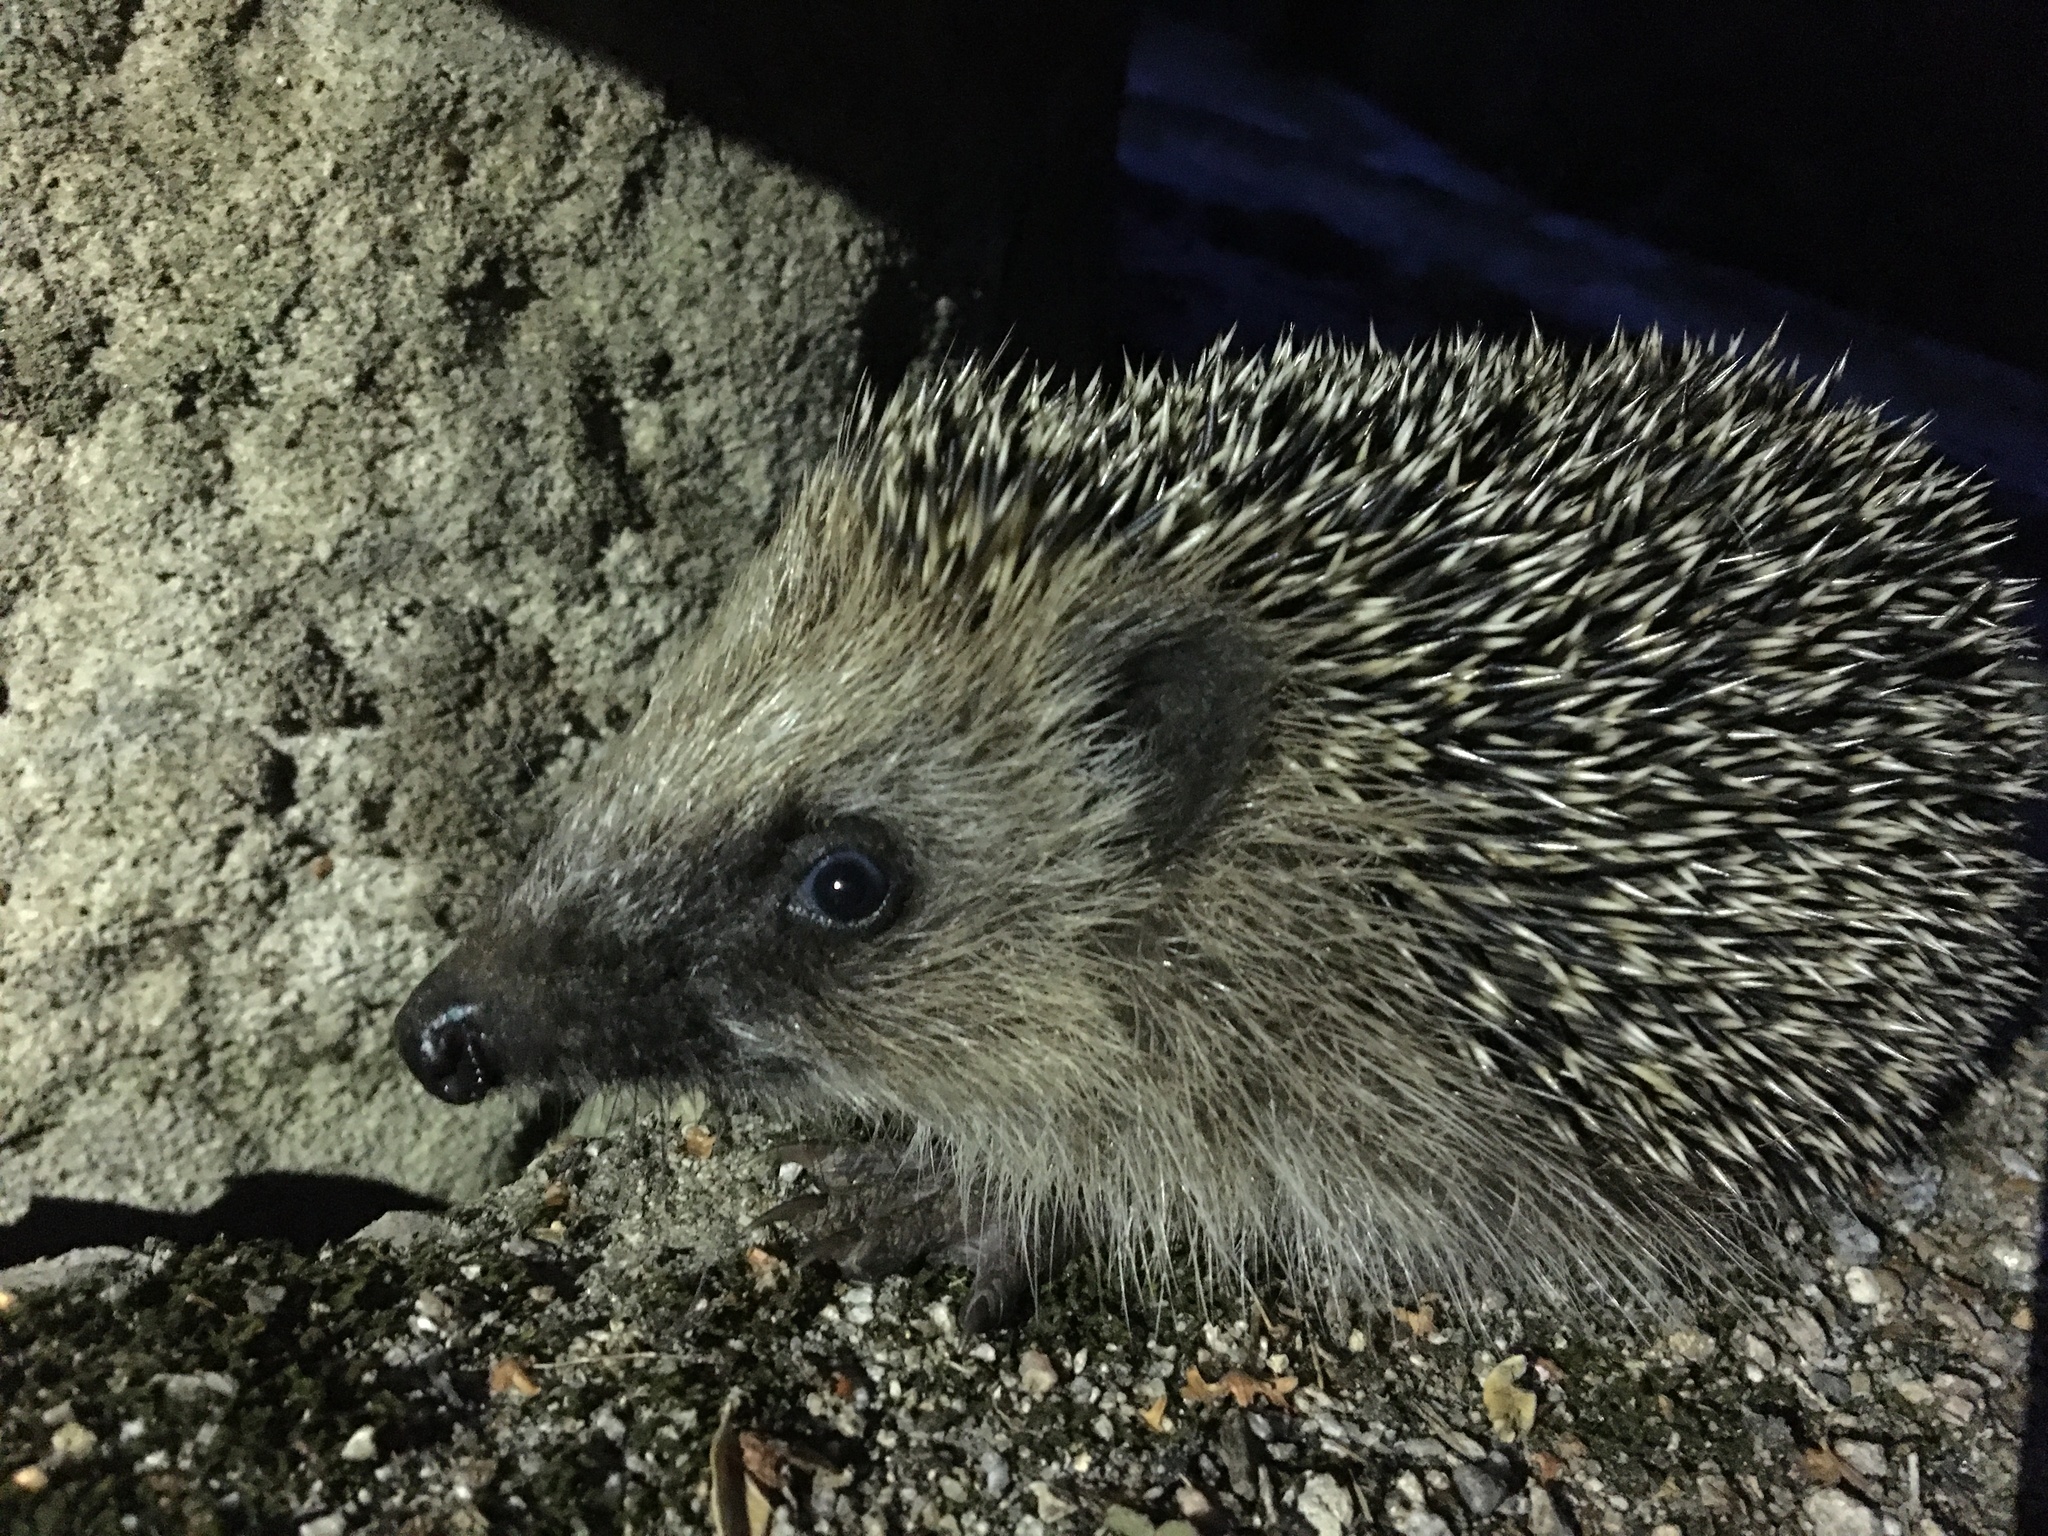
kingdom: Animalia
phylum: Chordata
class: Mammalia
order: Erinaceomorpha
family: Erinaceidae
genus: Erinaceus
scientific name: Erinaceus europaeus
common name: West european hedgehog
